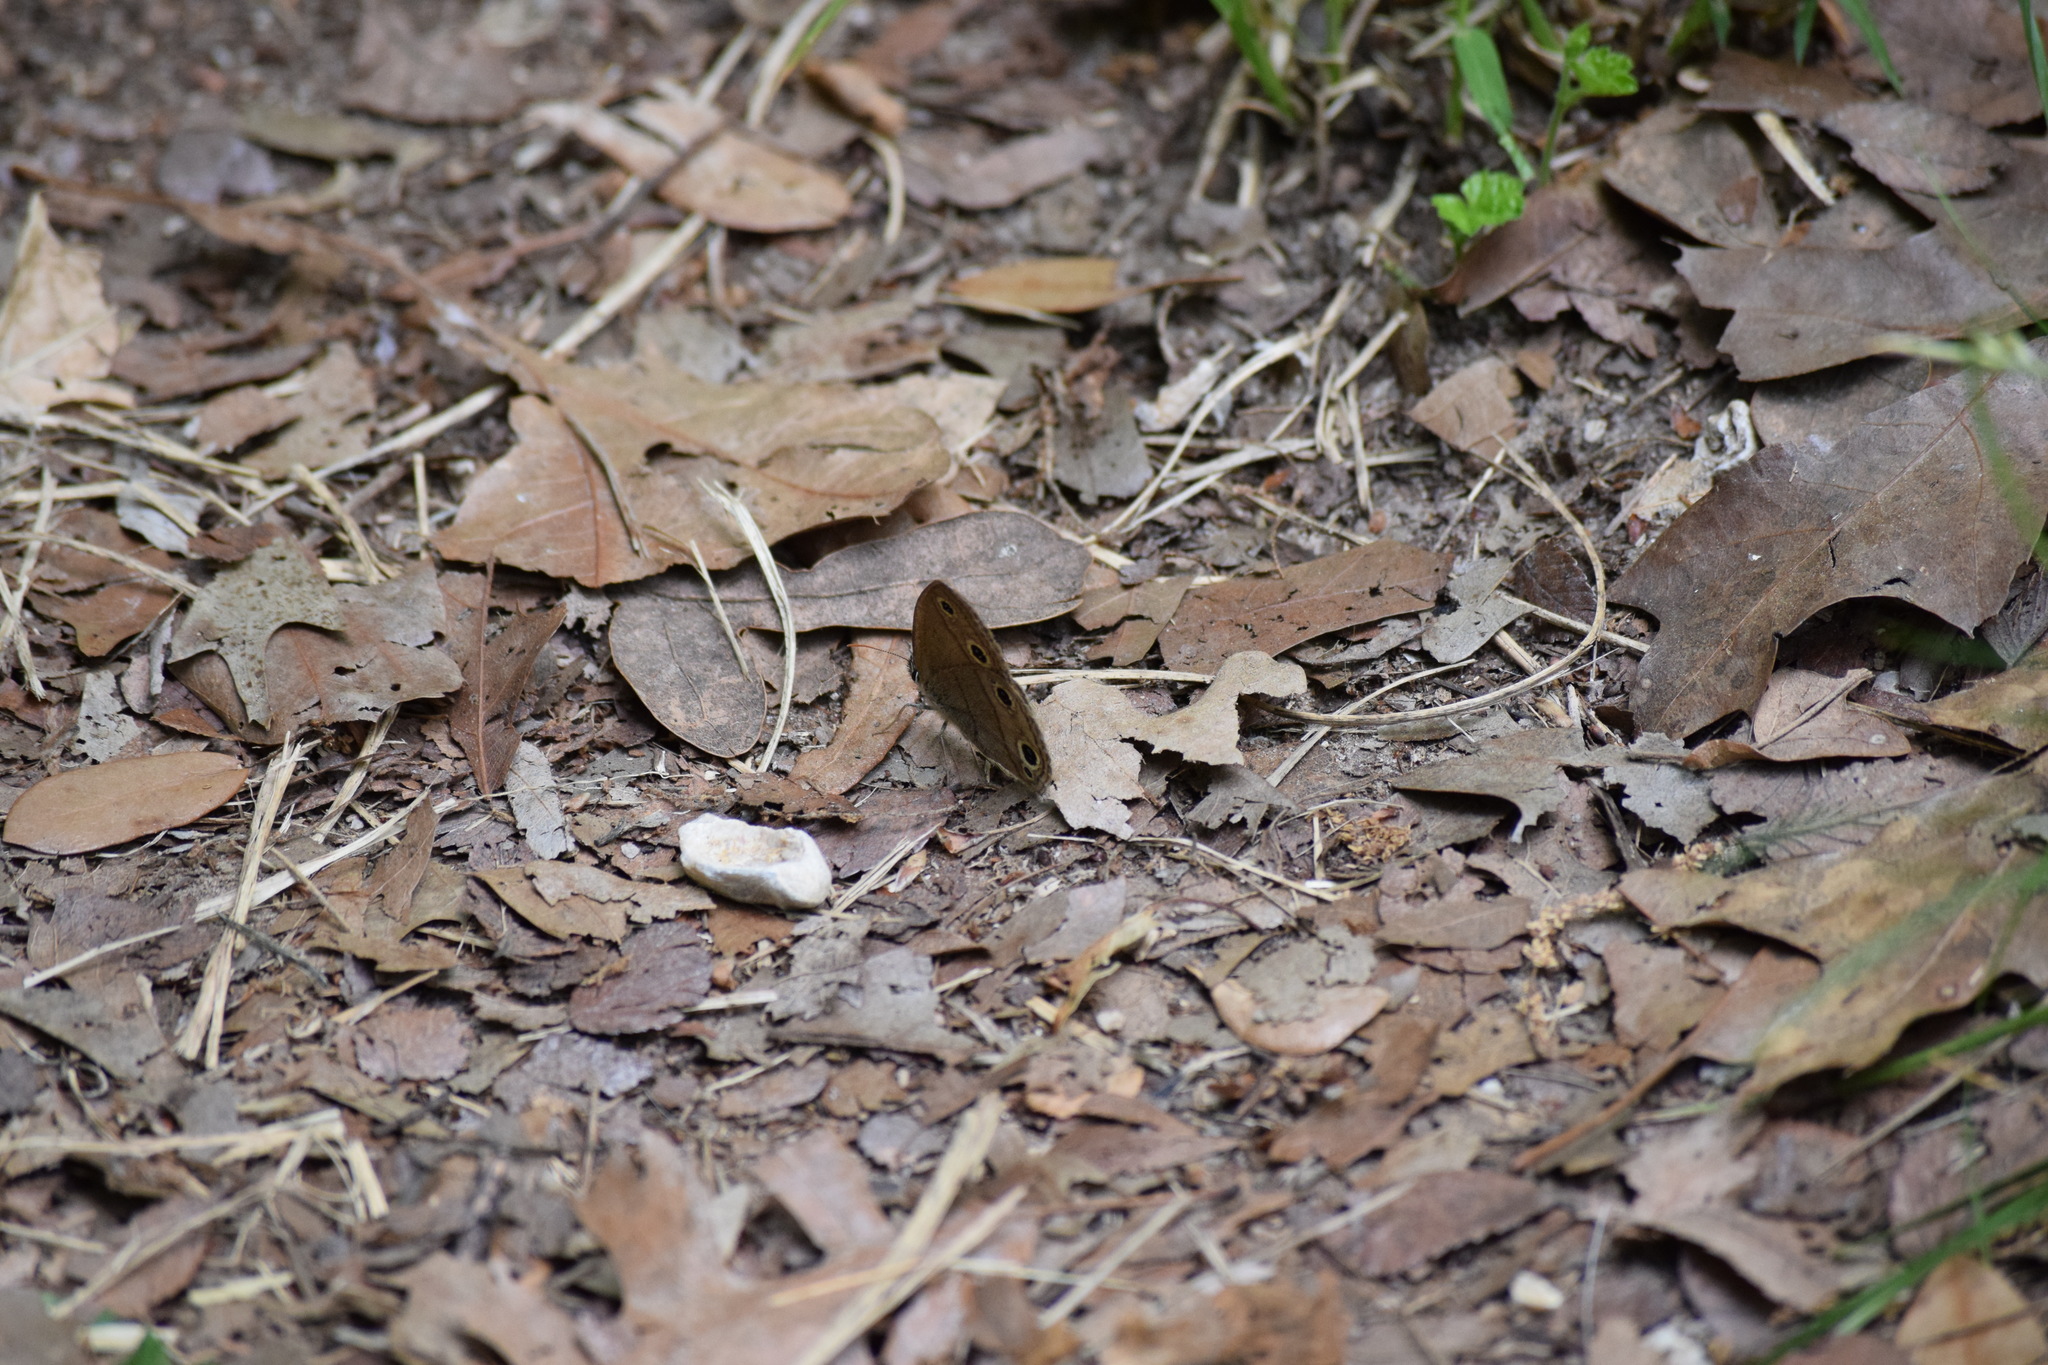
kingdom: Animalia
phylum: Arthropoda
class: Insecta
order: Lepidoptera
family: Nymphalidae
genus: Euptychia
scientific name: Euptychia cymela
